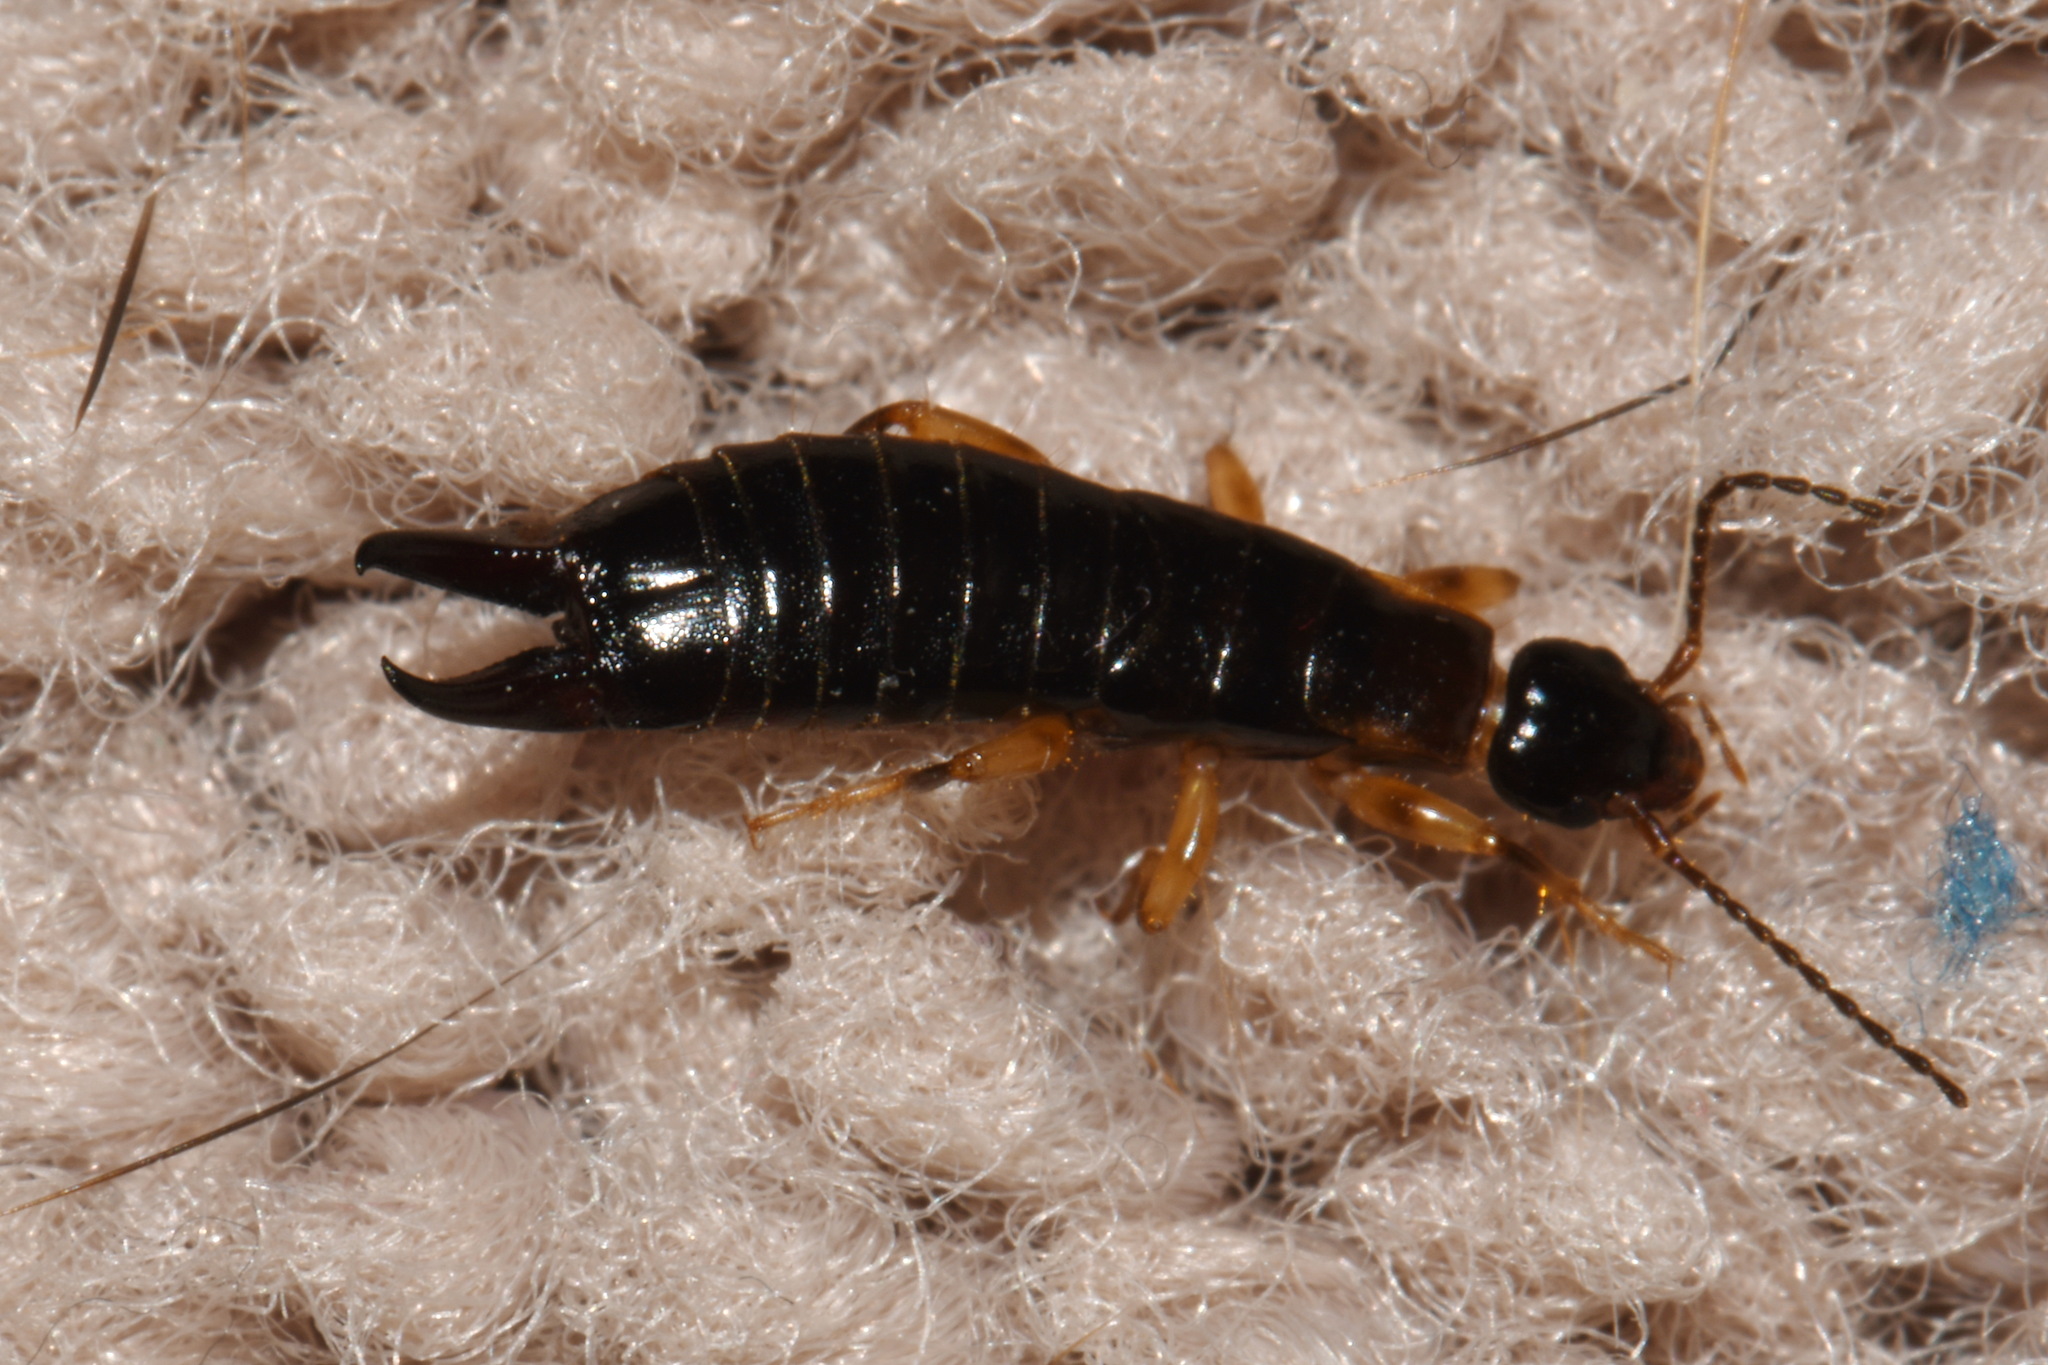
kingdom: Animalia
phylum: Arthropoda
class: Insecta
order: Dermaptera
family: Anisolabididae
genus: Euborellia
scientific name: Euborellia annulipes
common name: Ringlegged earwig
